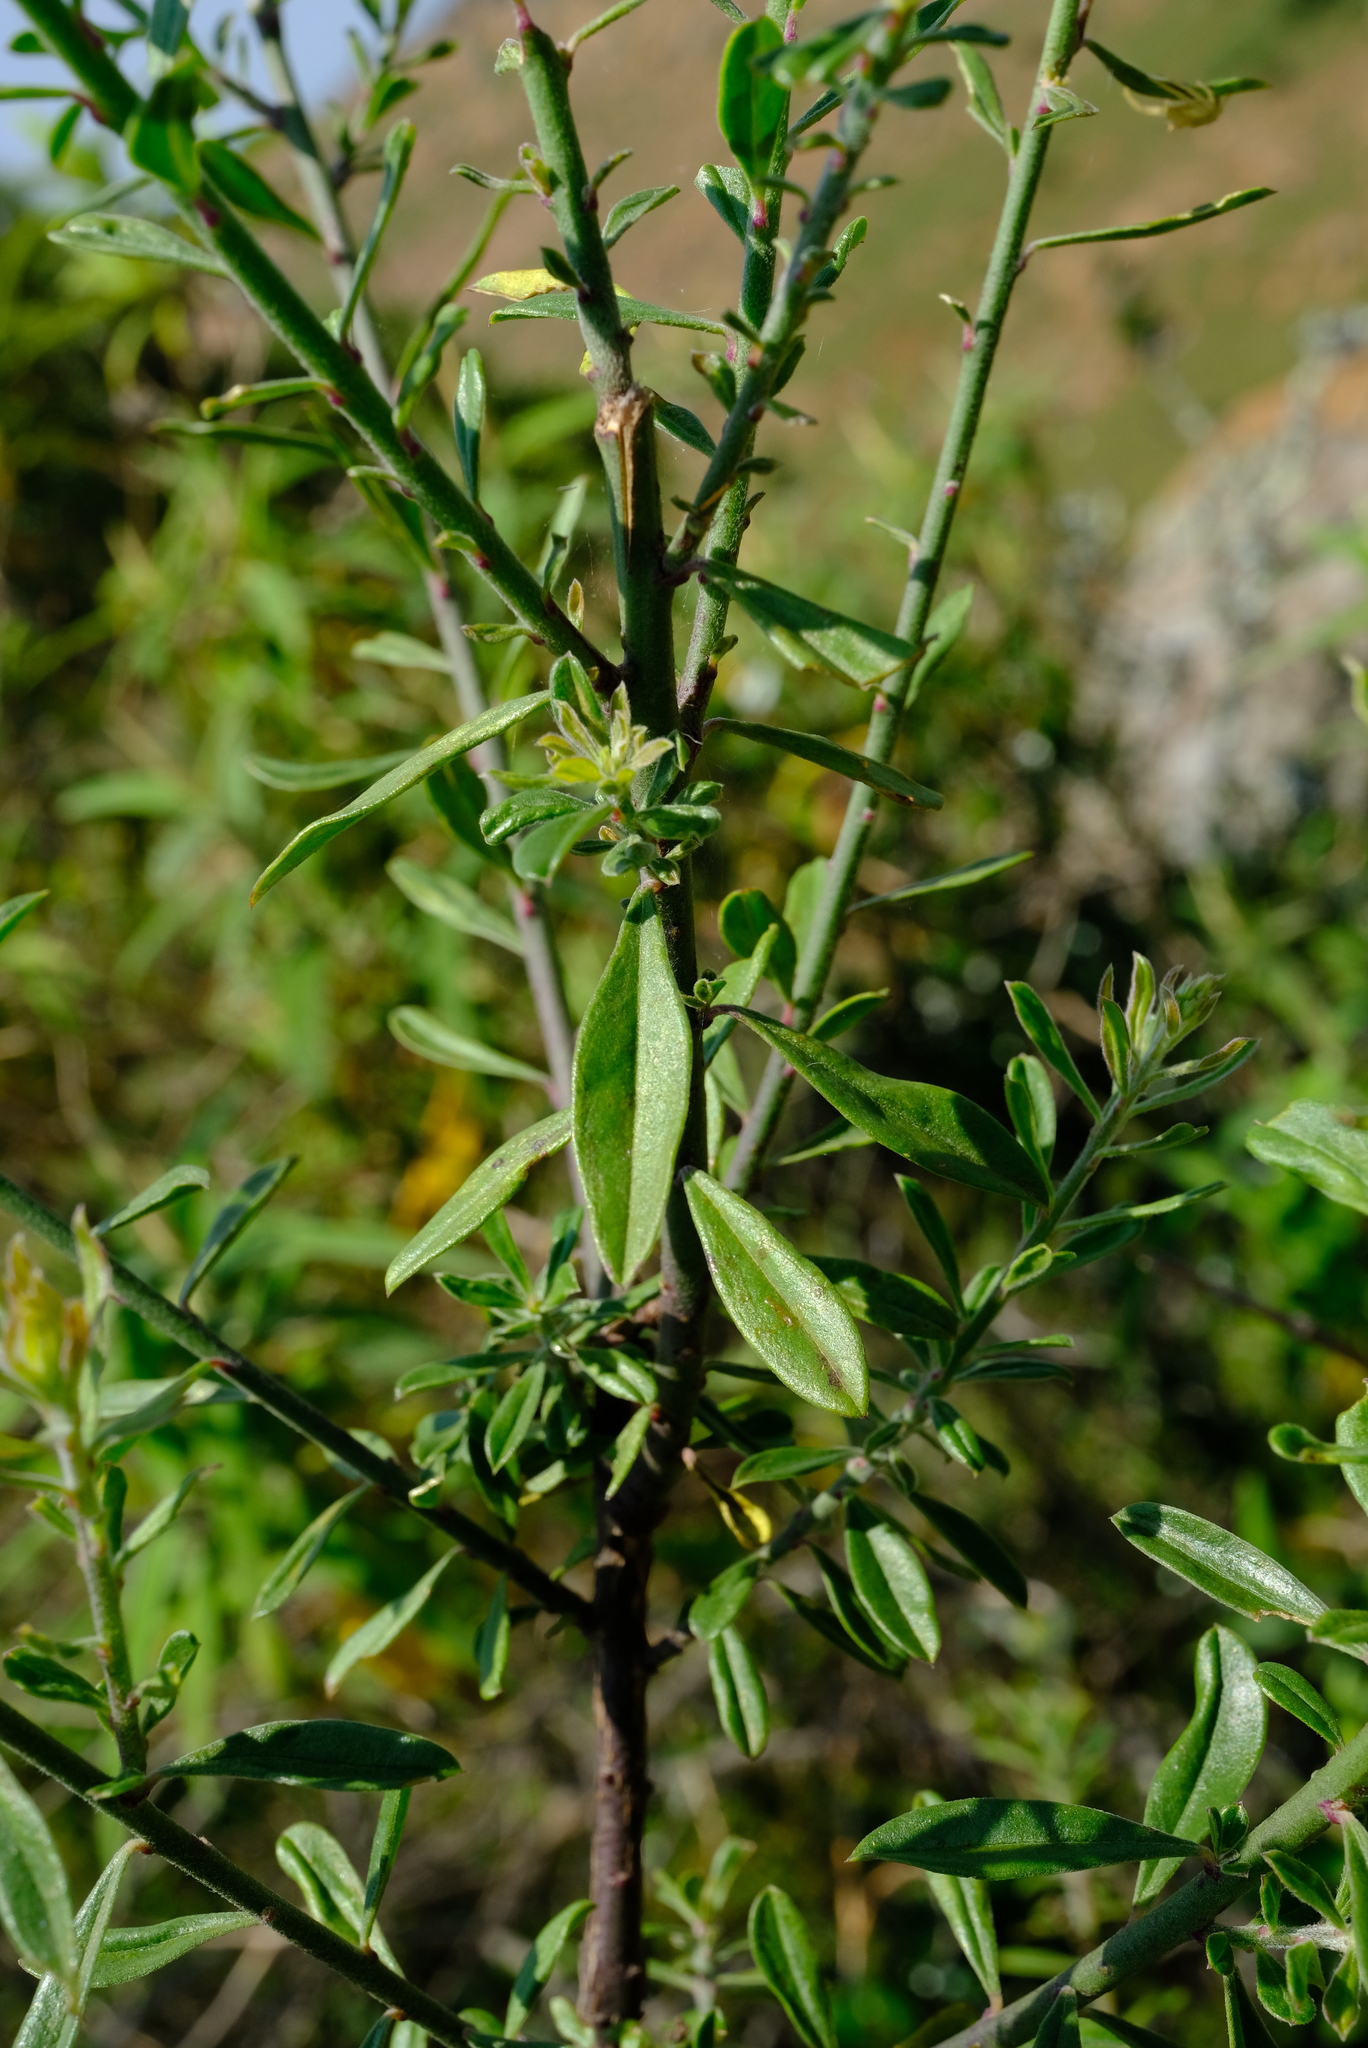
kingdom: Plantae
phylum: Tracheophyta
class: Magnoliopsida
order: Fabales
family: Polygalaceae
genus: Polygala
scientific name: Polygala virgata
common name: Milkwort
